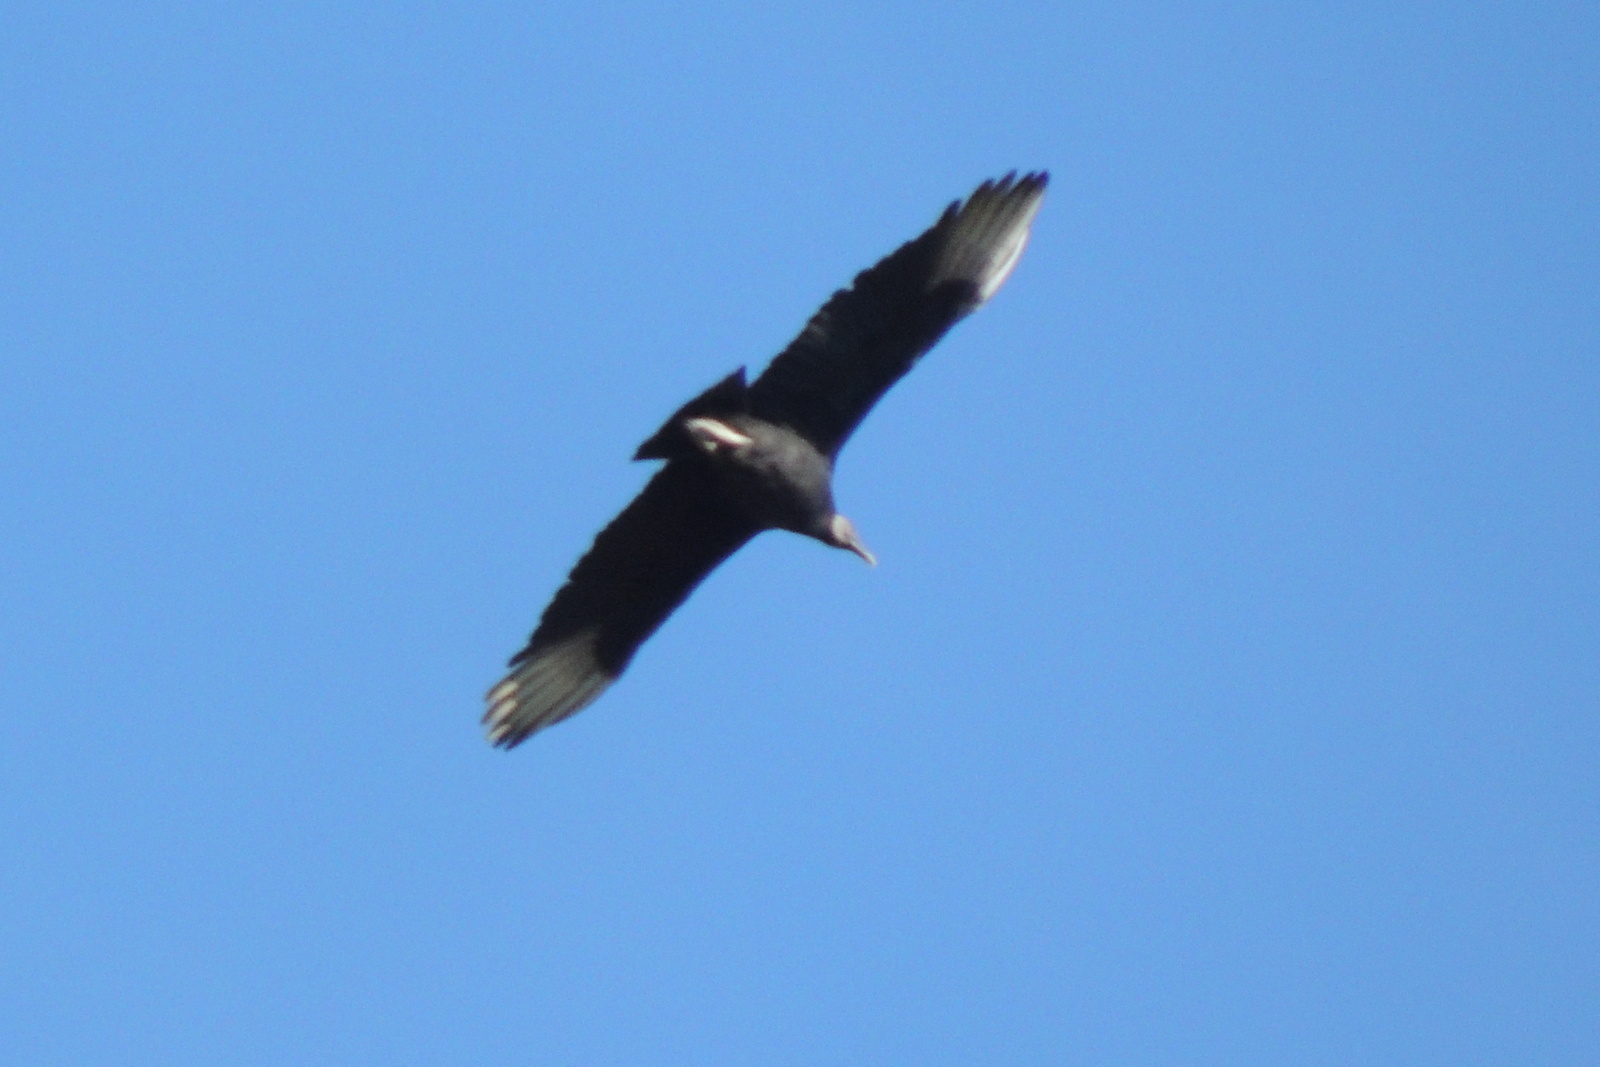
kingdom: Animalia
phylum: Chordata
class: Aves
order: Accipitriformes
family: Cathartidae
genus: Coragyps
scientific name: Coragyps atratus
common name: Black vulture
